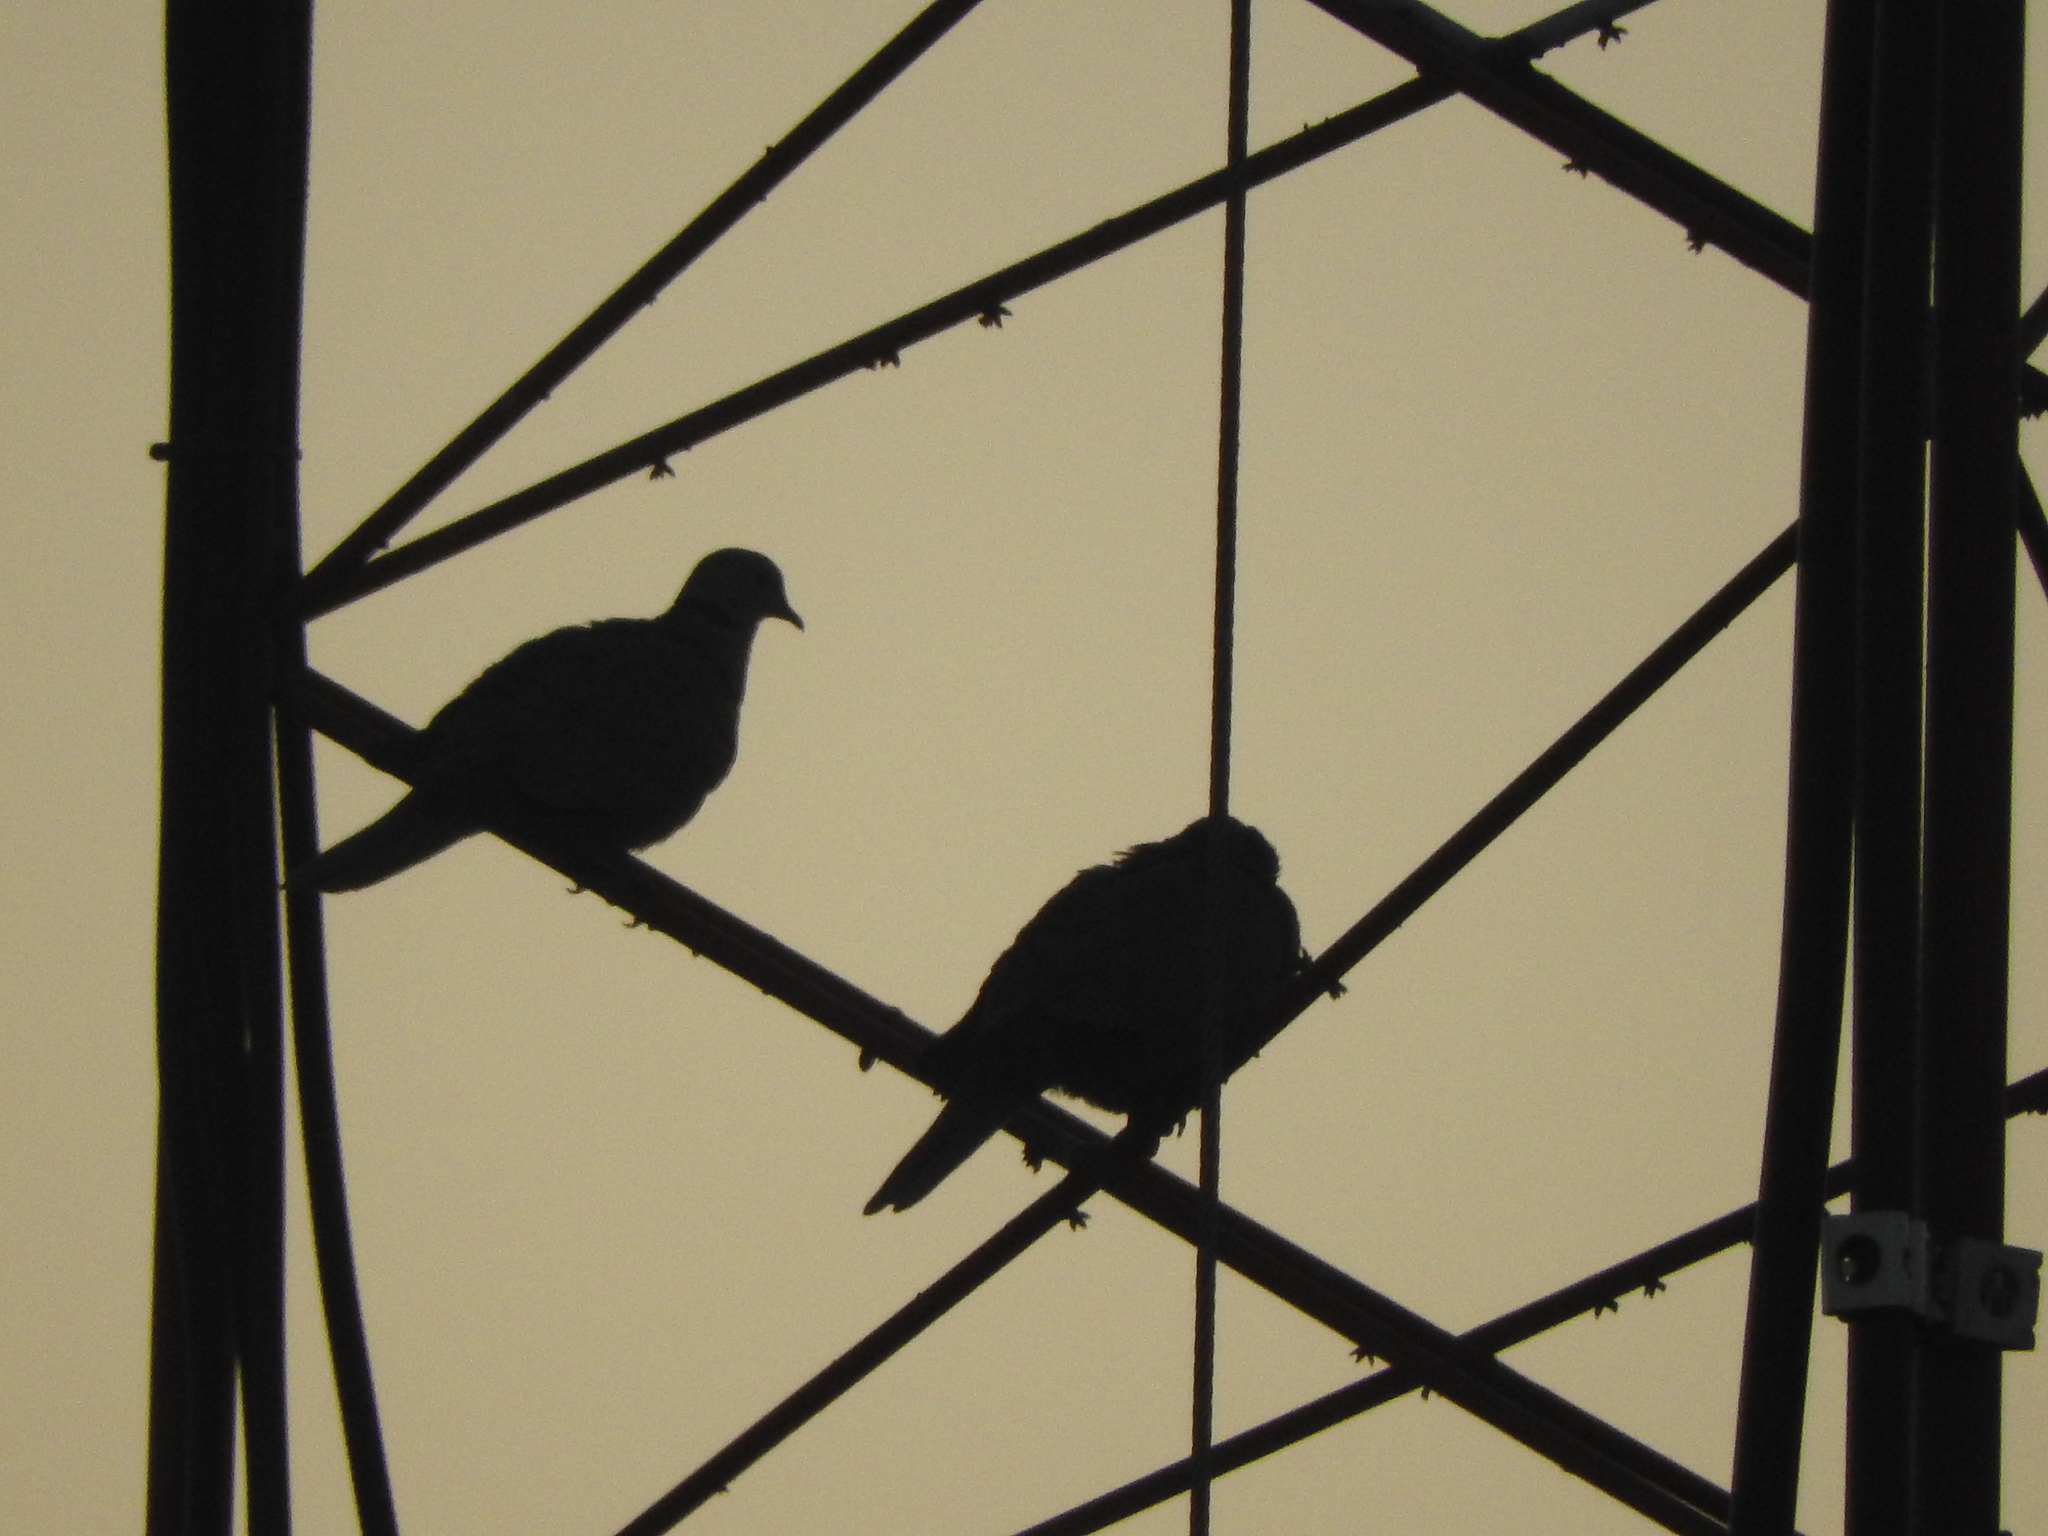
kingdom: Animalia
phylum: Chordata
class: Aves
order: Columbiformes
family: Columbidae
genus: Streptopelia
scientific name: Streptopelia decaocto
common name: Eurasian collared dove
